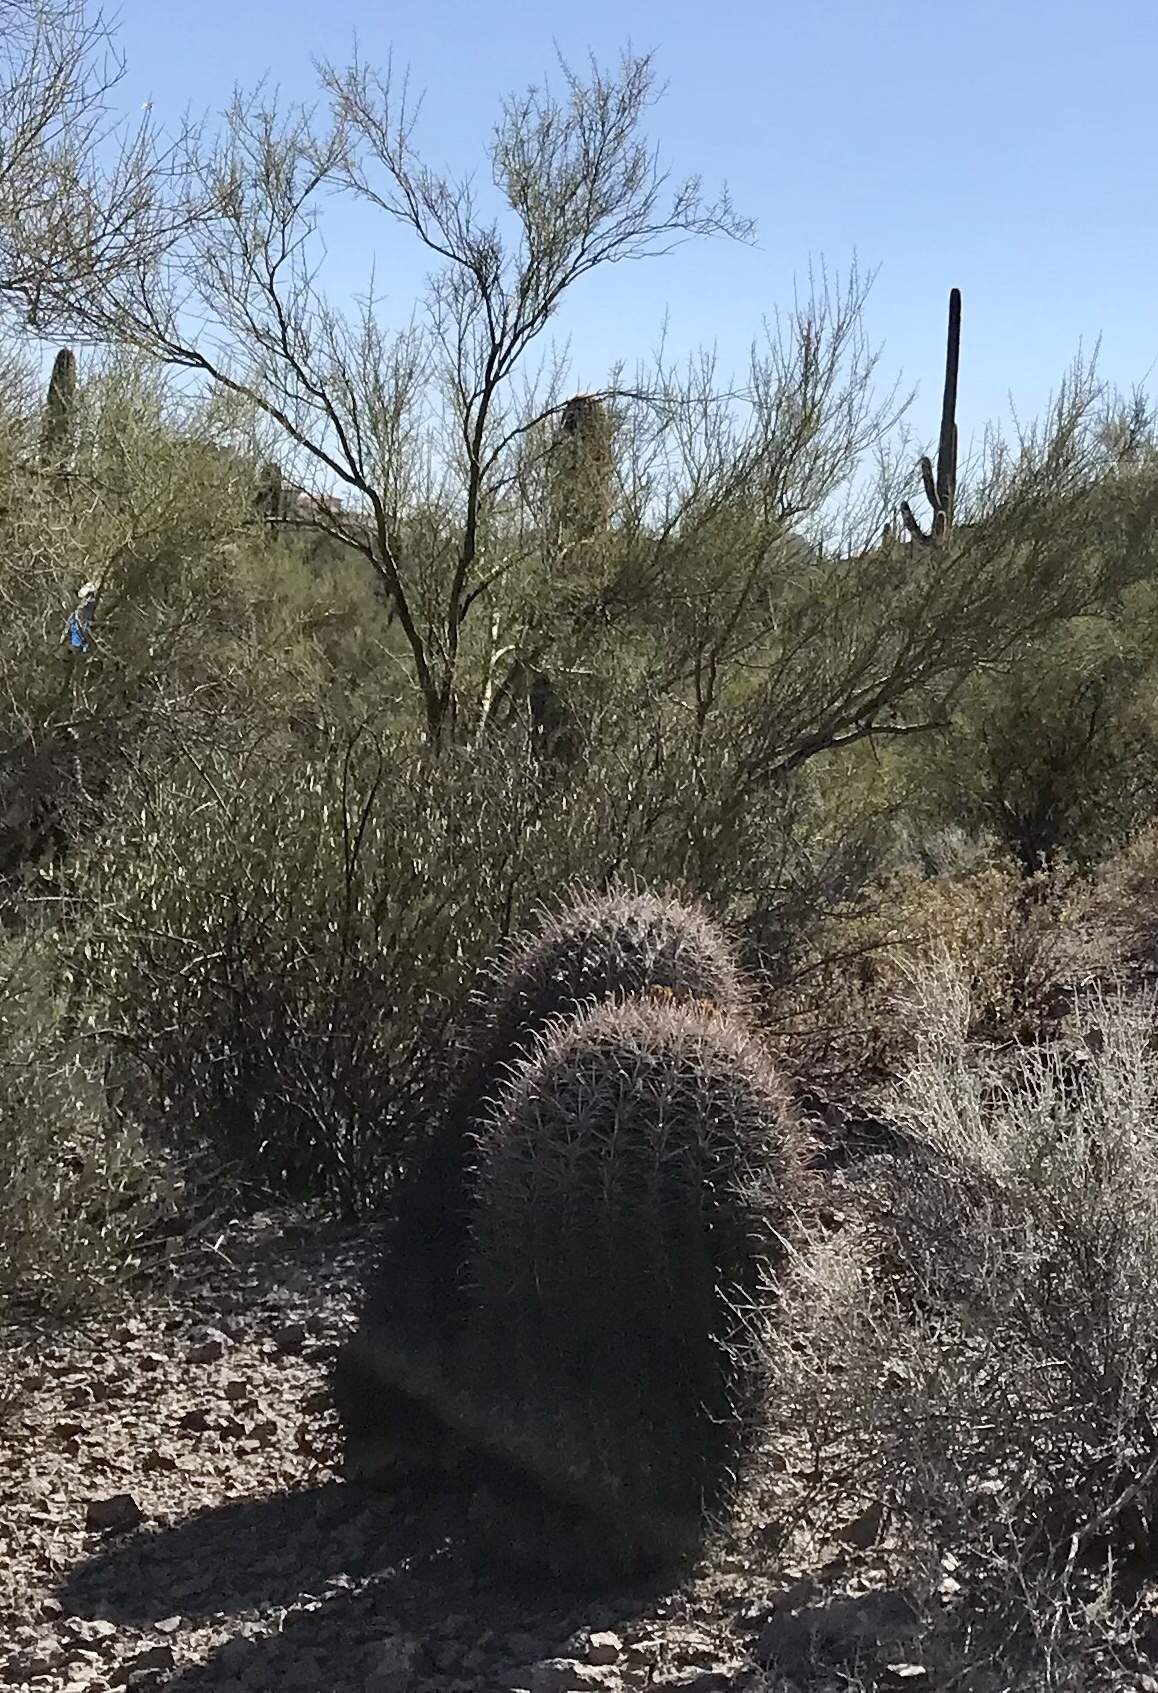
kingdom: Plantae
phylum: Tracheophyta
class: Magnoliopsida
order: Caryophyllales
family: Cactaceae
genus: Ferocactus
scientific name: Ferocactus wislizeni
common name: Candy barrel cactus
